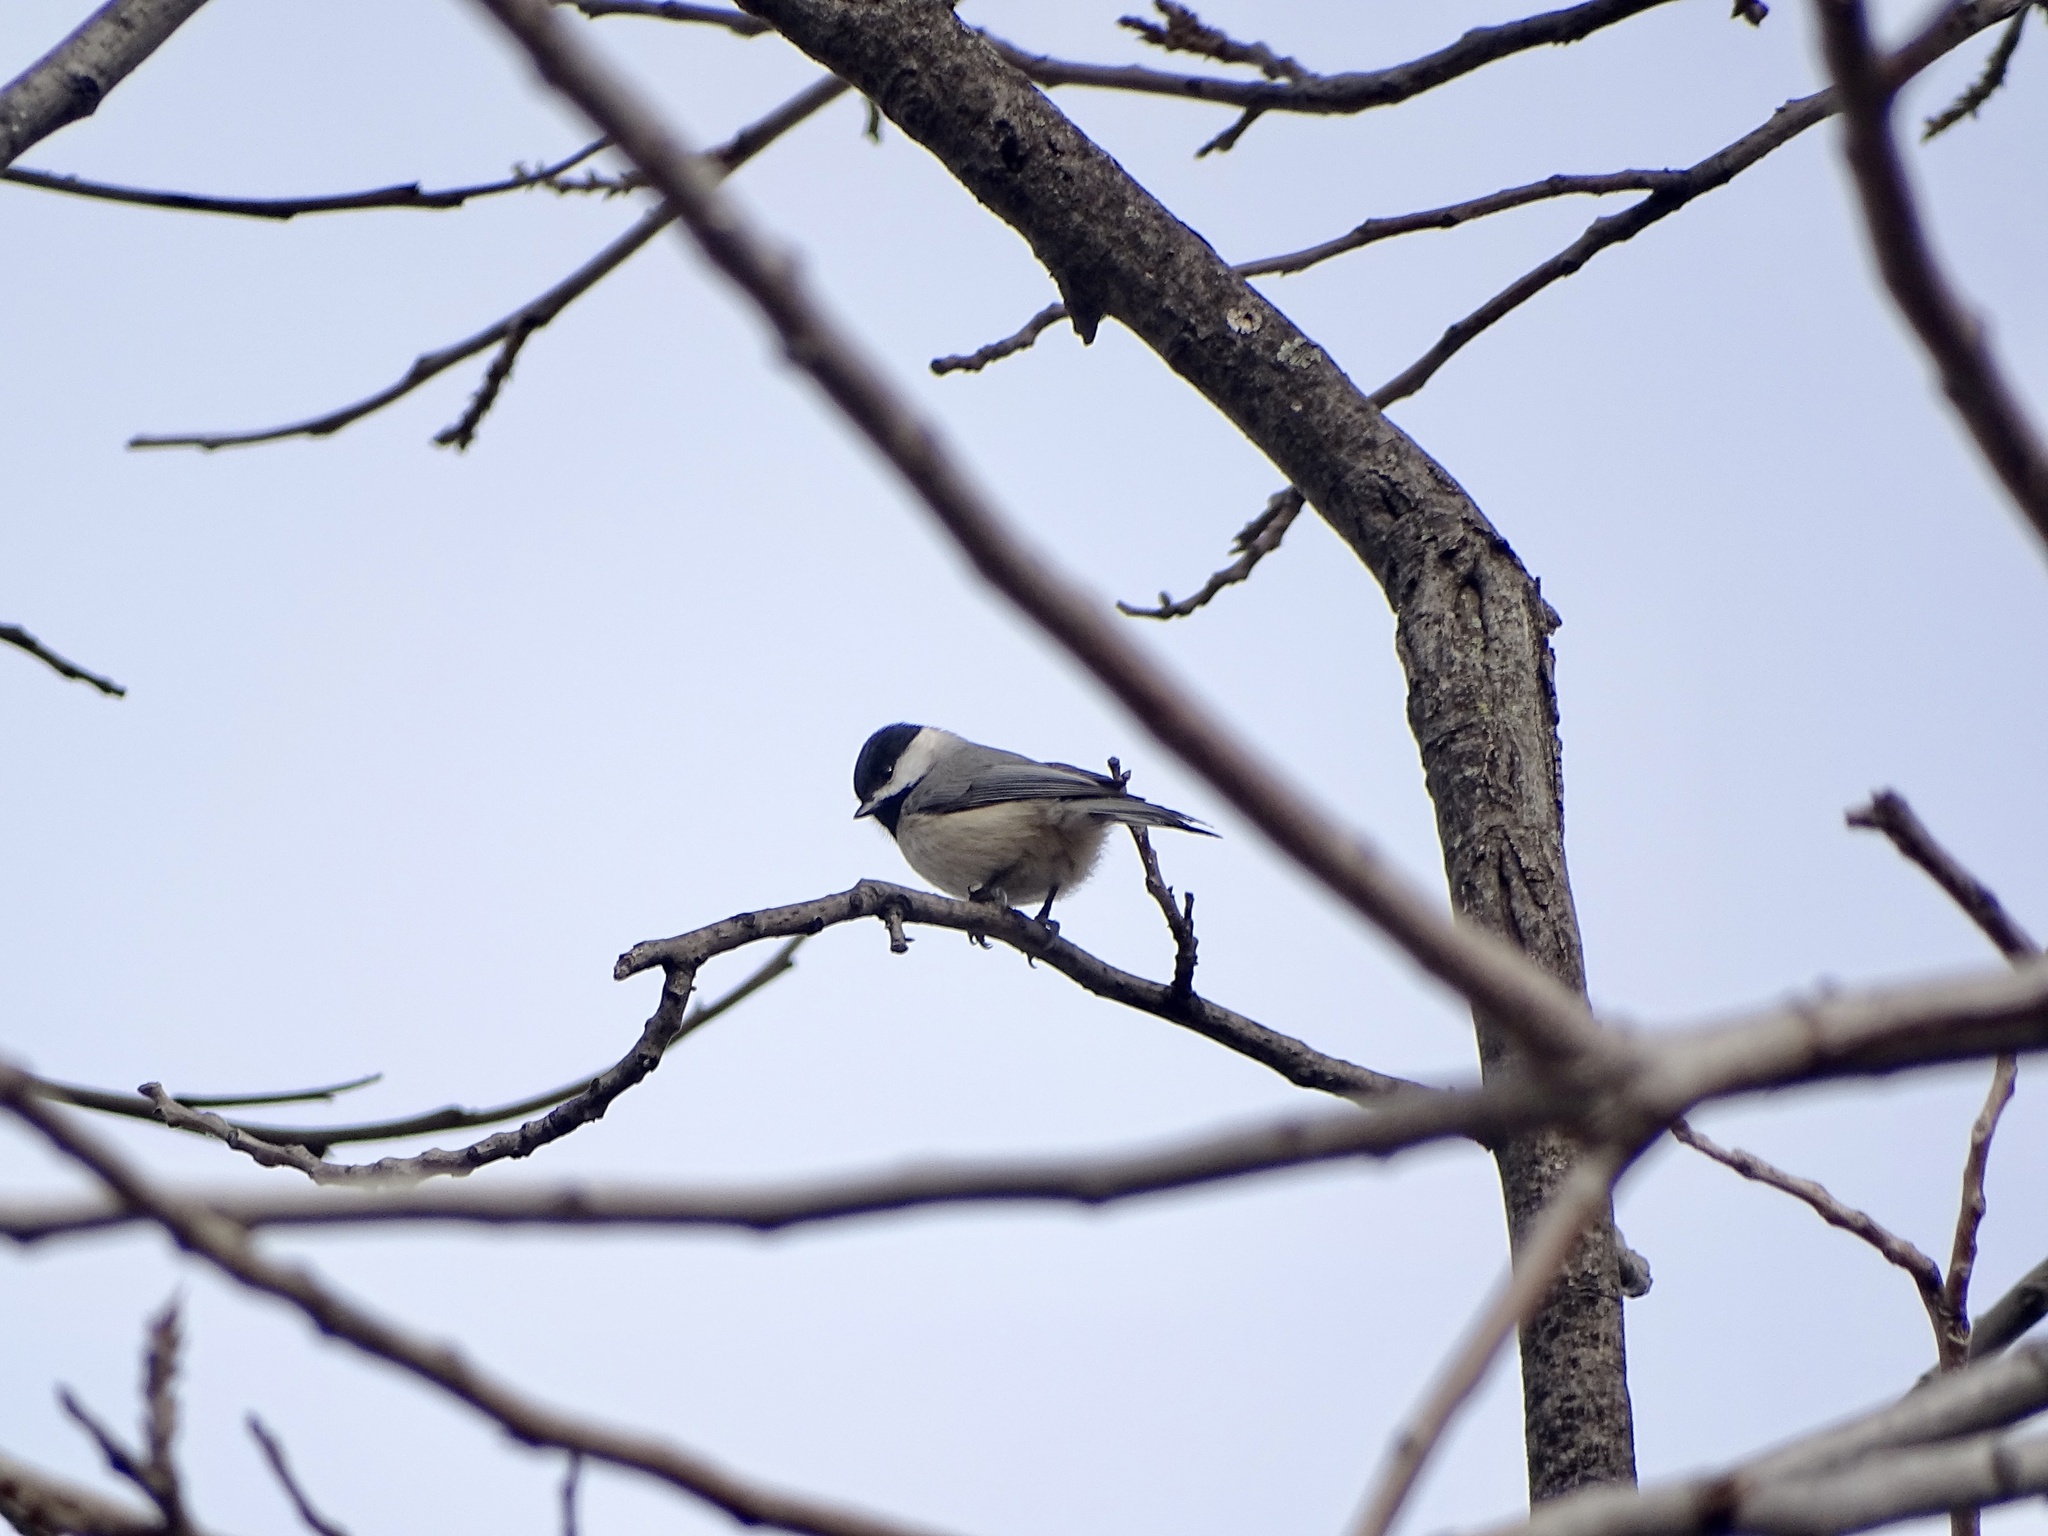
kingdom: Animalia
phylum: Chordata
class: Aves
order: Passeriformes
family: Paridae
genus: Poecile
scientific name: Poecile carolinensis
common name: Carolina chickadee
